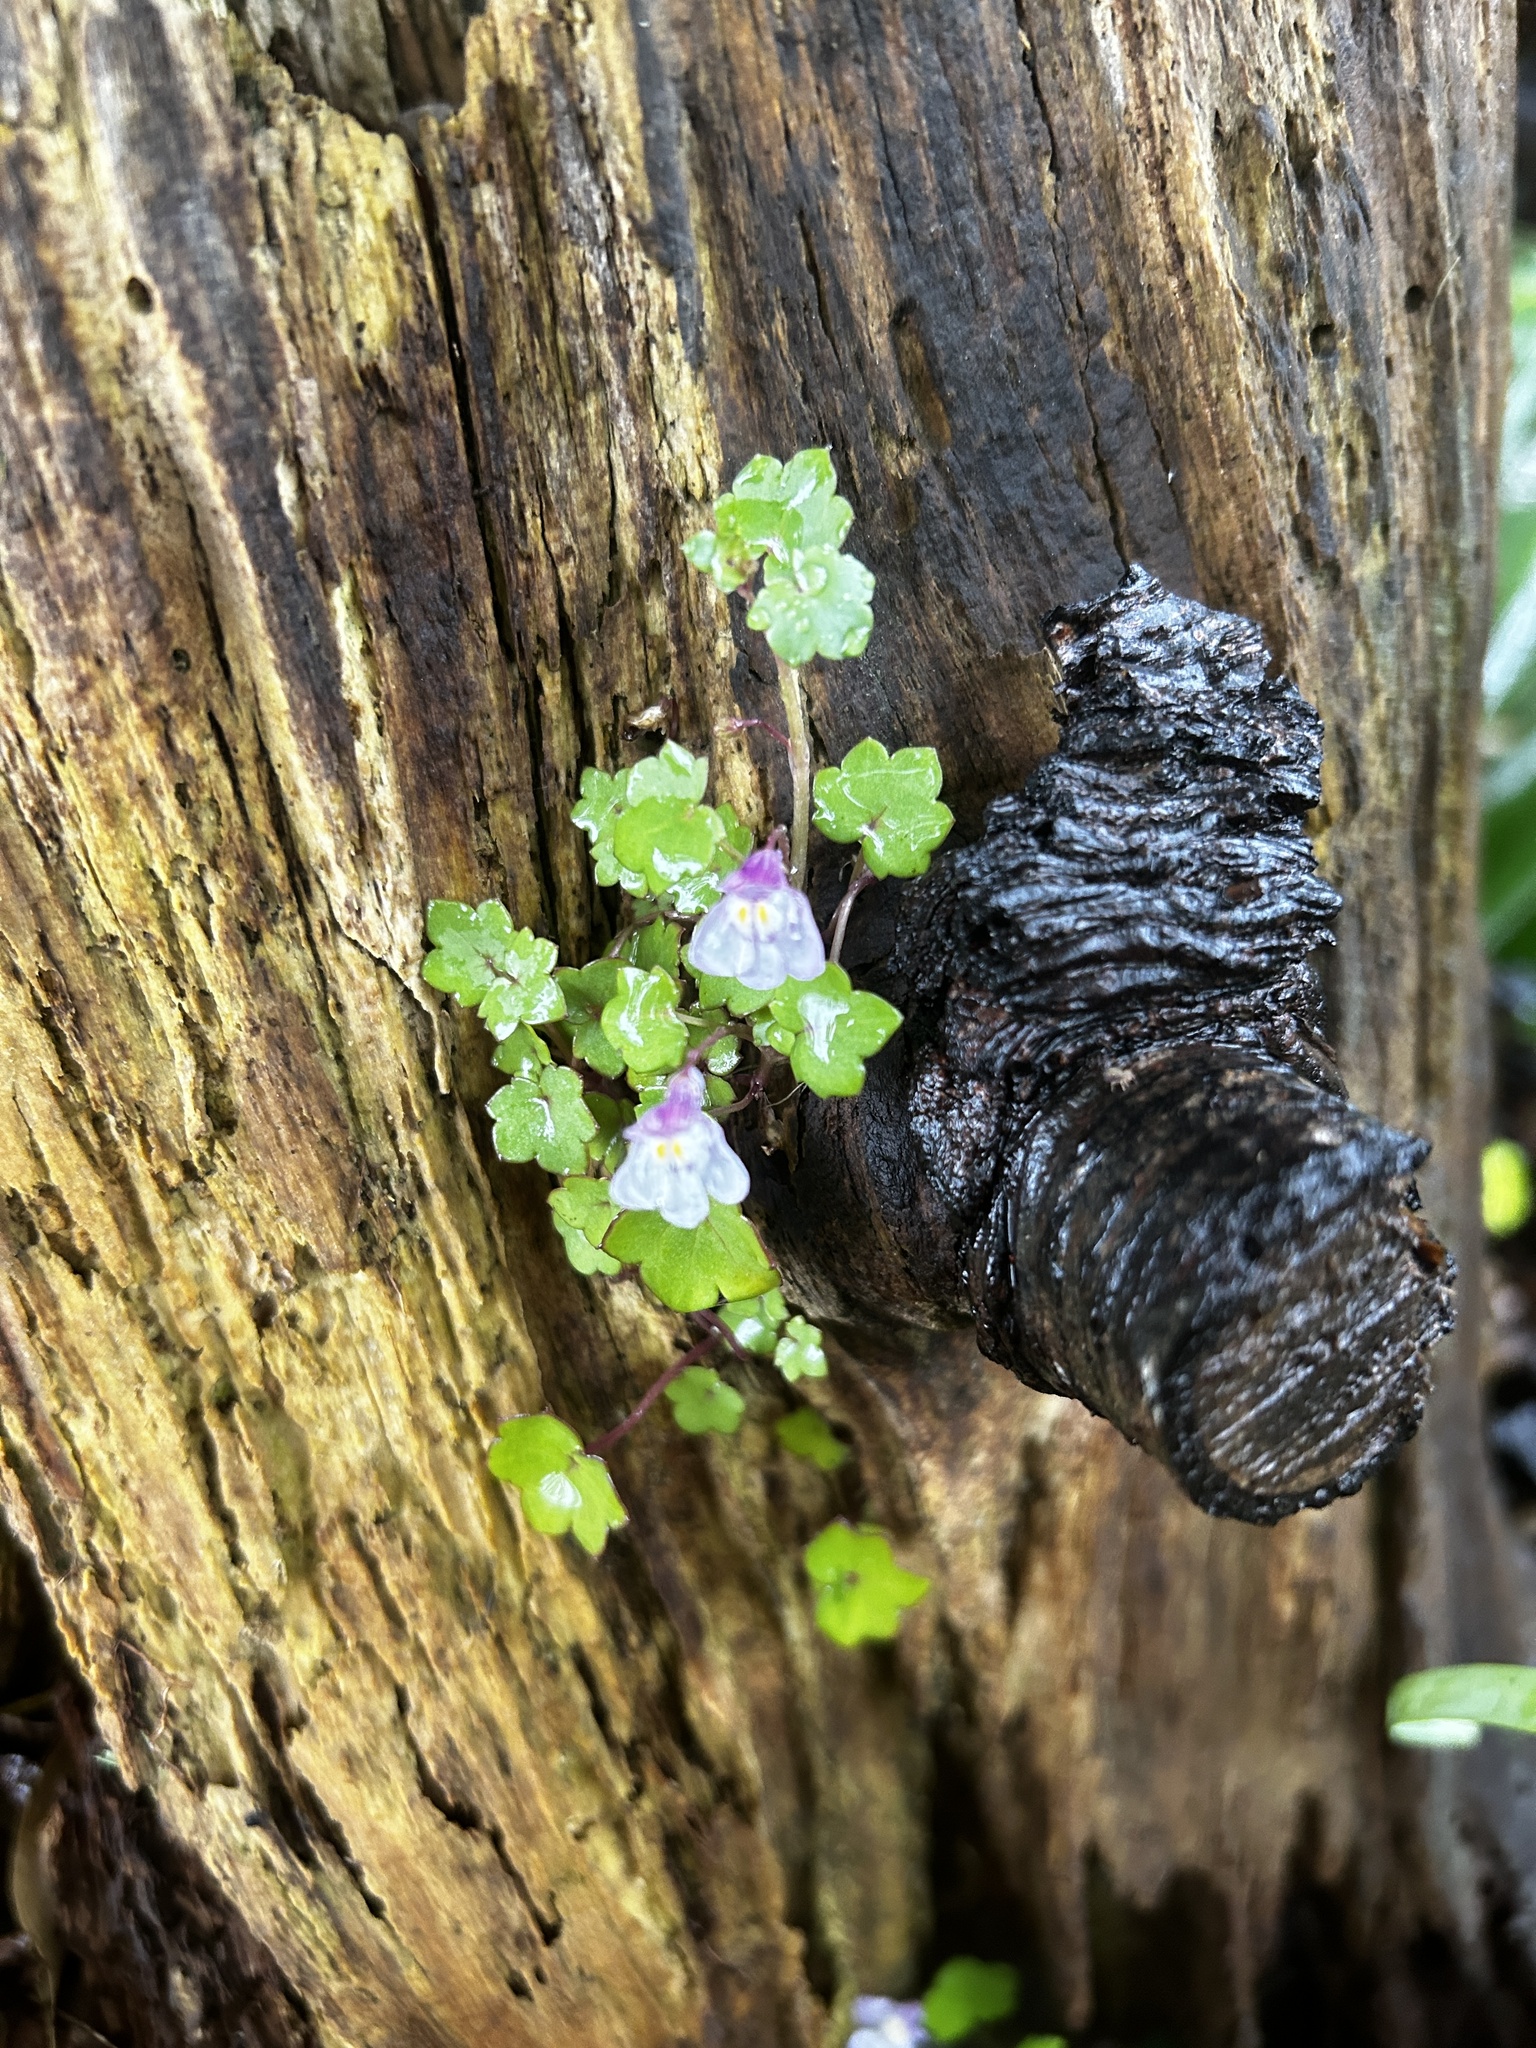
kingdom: Plantae
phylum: Tracheophyta
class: Magnoliopsida
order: Lamiales
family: Plantaginaceae
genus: Cymbalaria
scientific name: Cymbalaria muralis
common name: Ivy-leaved toadflax
